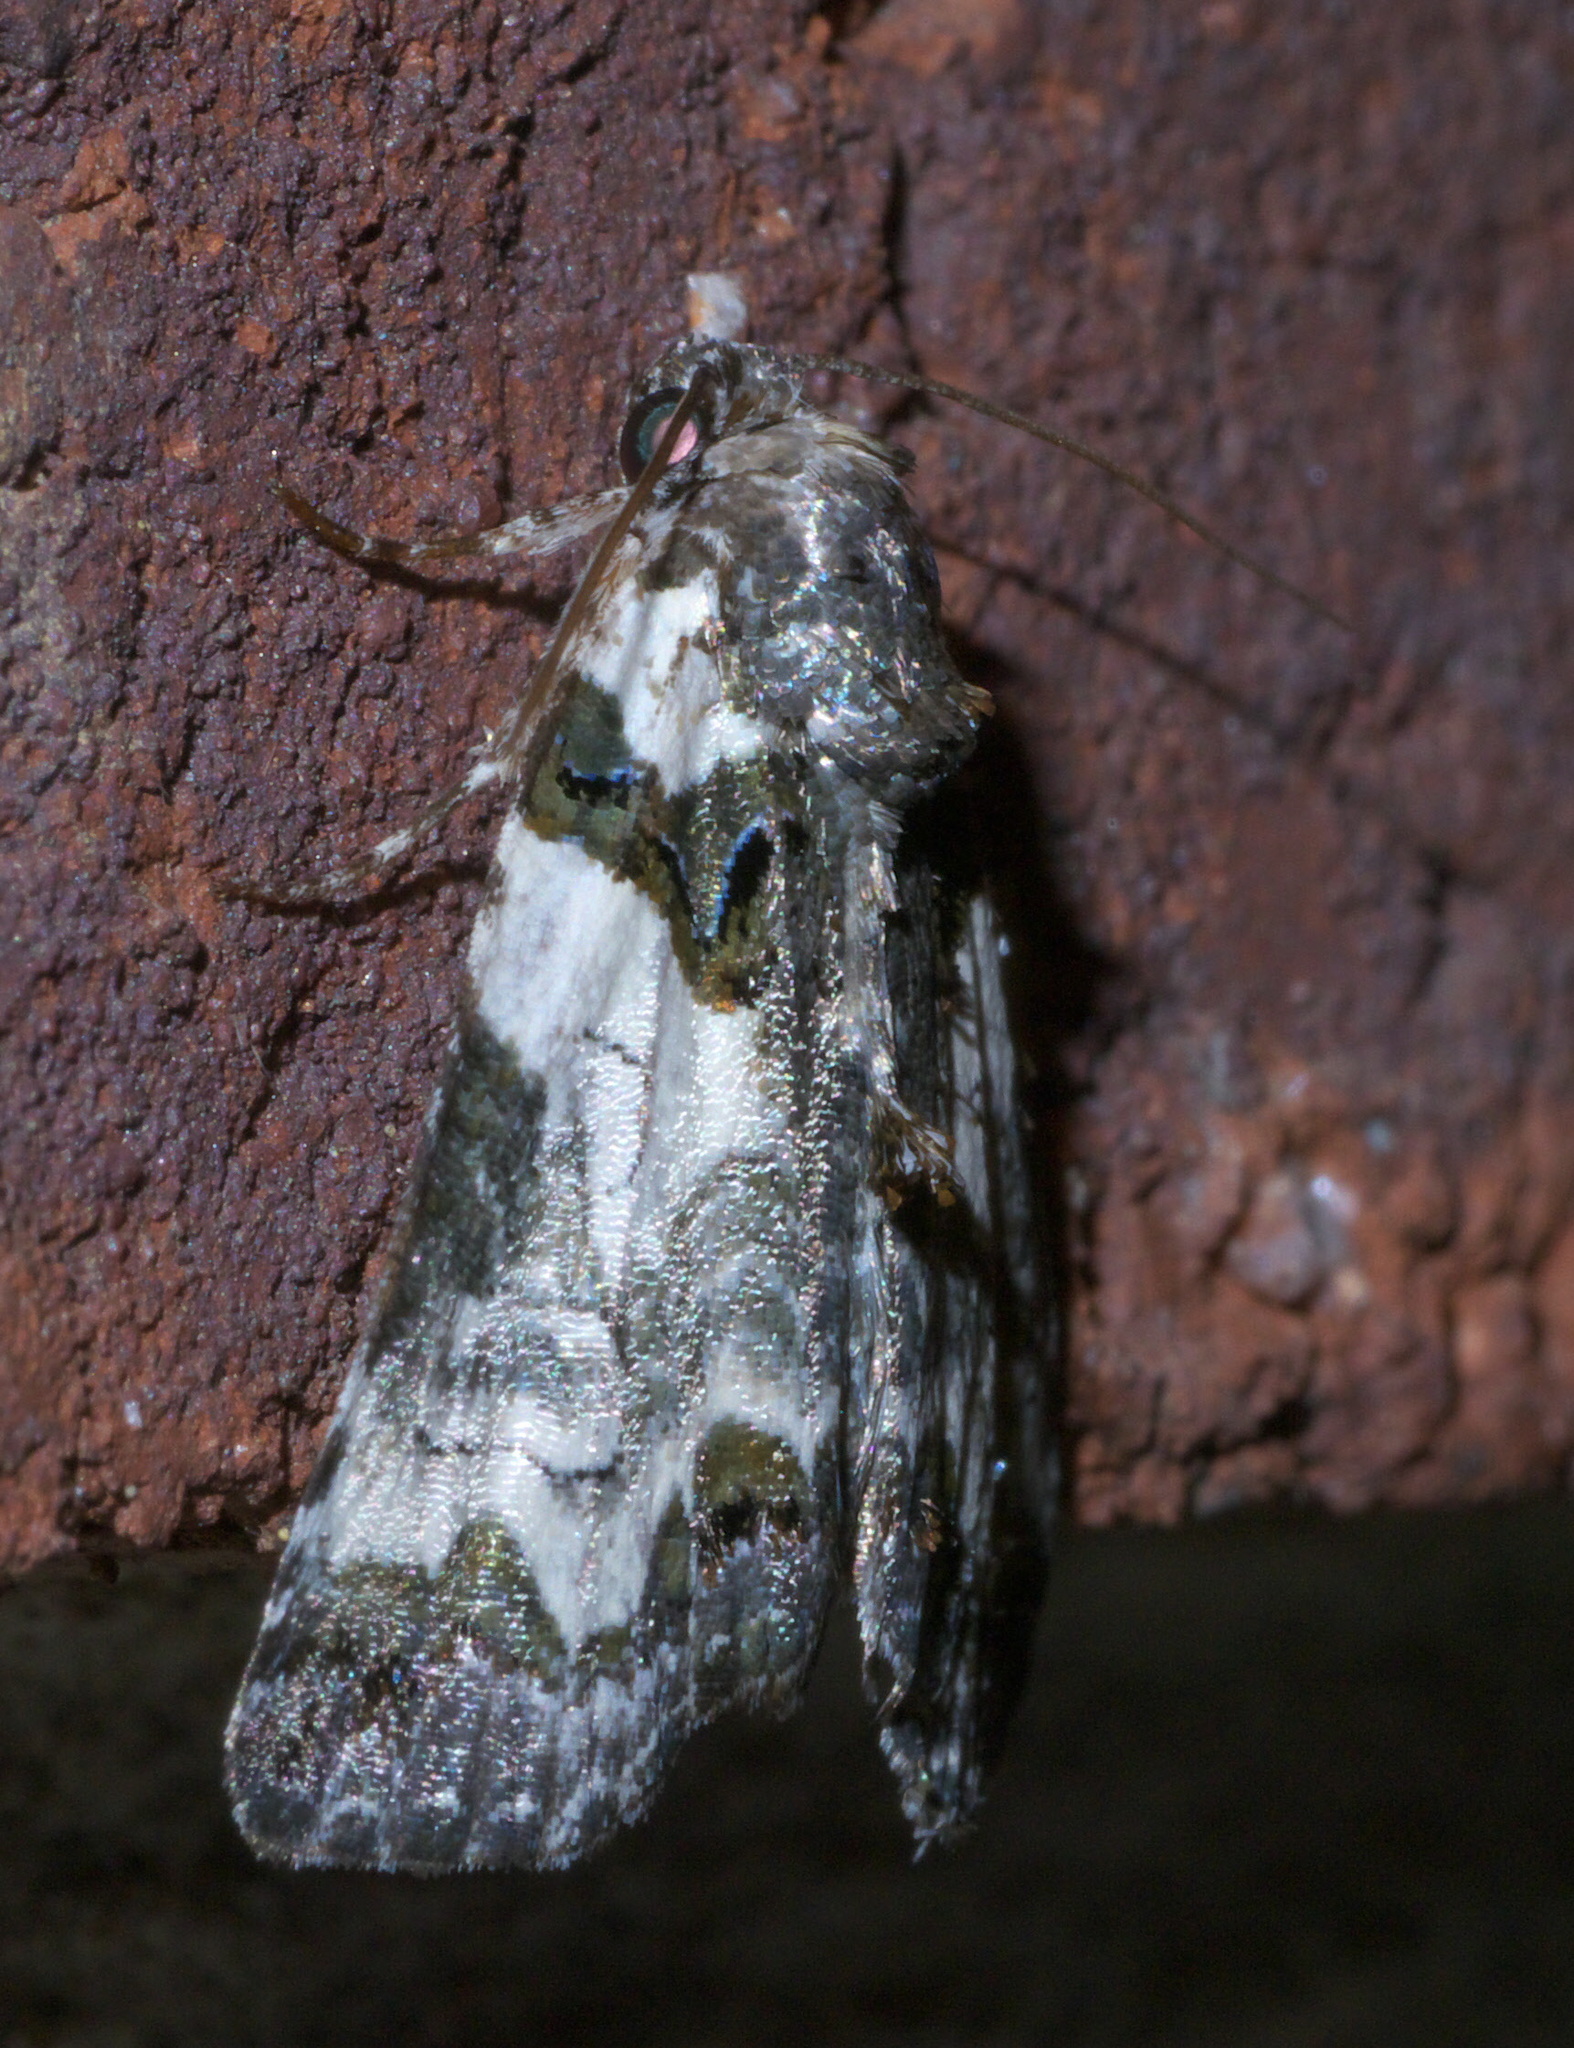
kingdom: Animalia
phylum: Arthropoda
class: Insecta
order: Lepidoptera
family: Noctuidae
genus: Cerma
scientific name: Cerma cerintha
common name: Tufted bird-dropping moth
